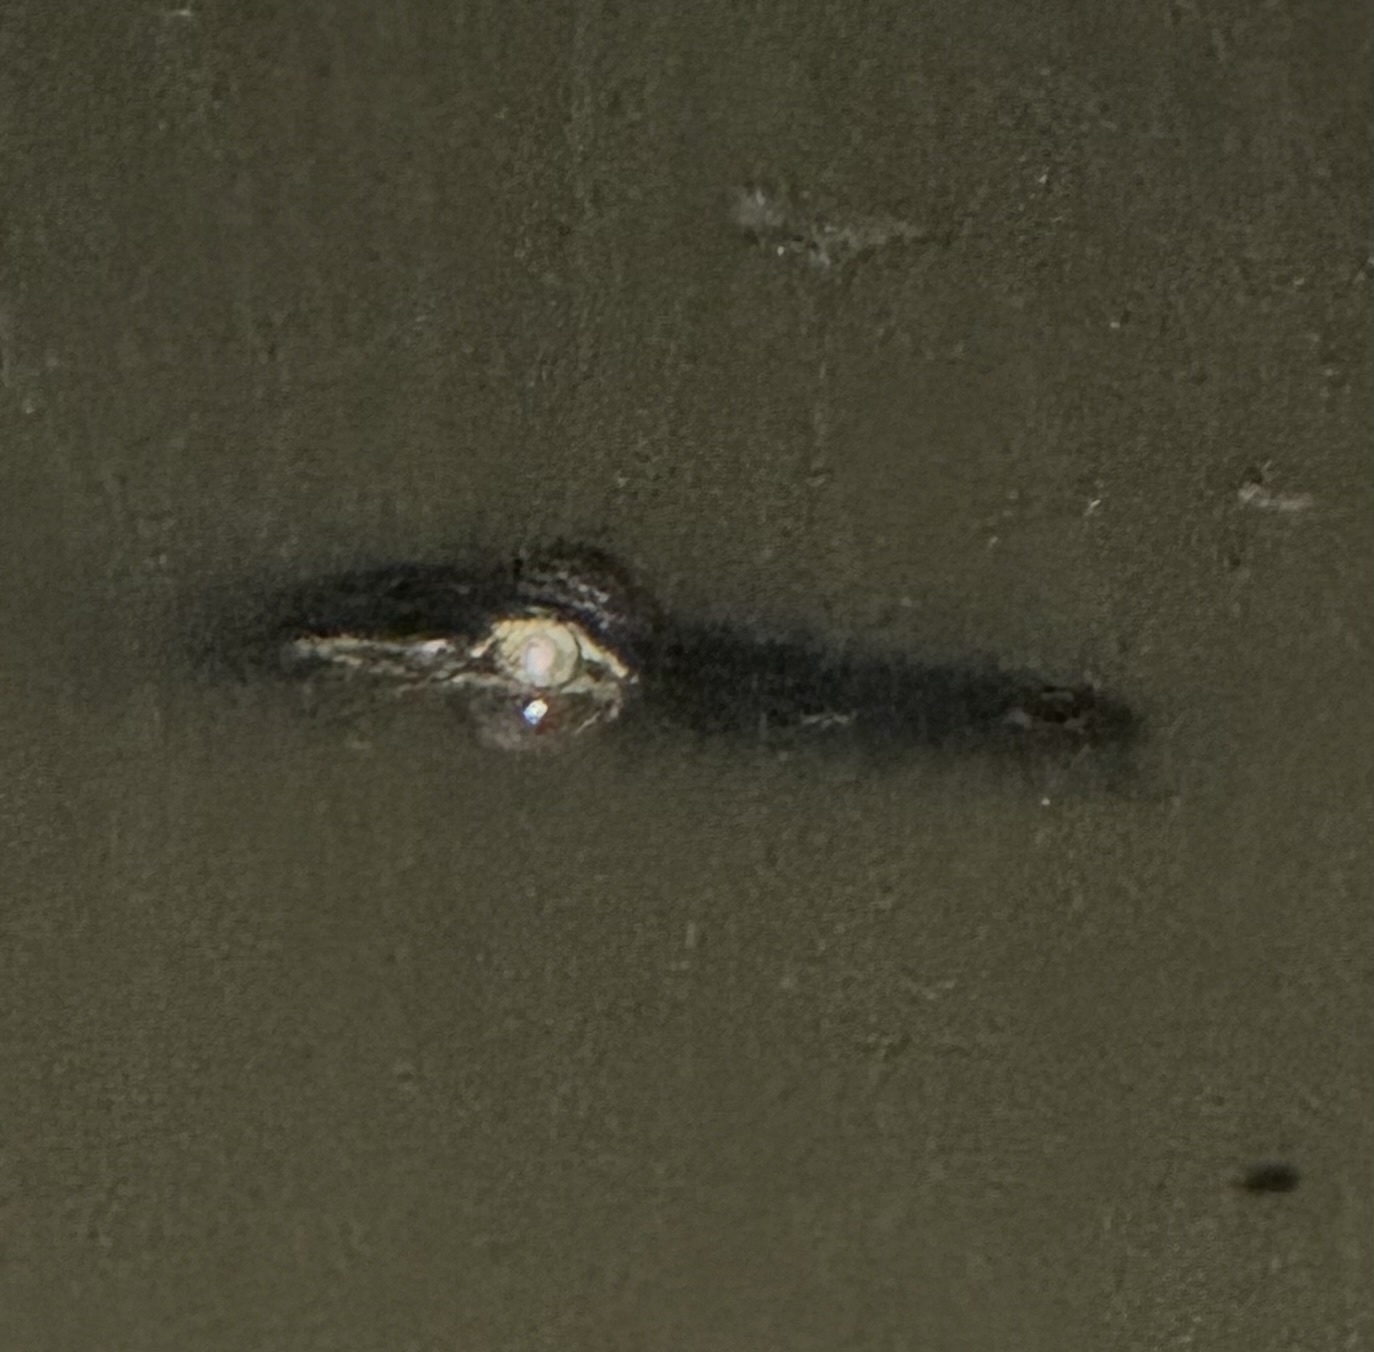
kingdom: Animalia
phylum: Chordata
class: Crocodylia
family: Alligatoridae
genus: Alligator
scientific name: Alligator mississippiensis
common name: American alligator
